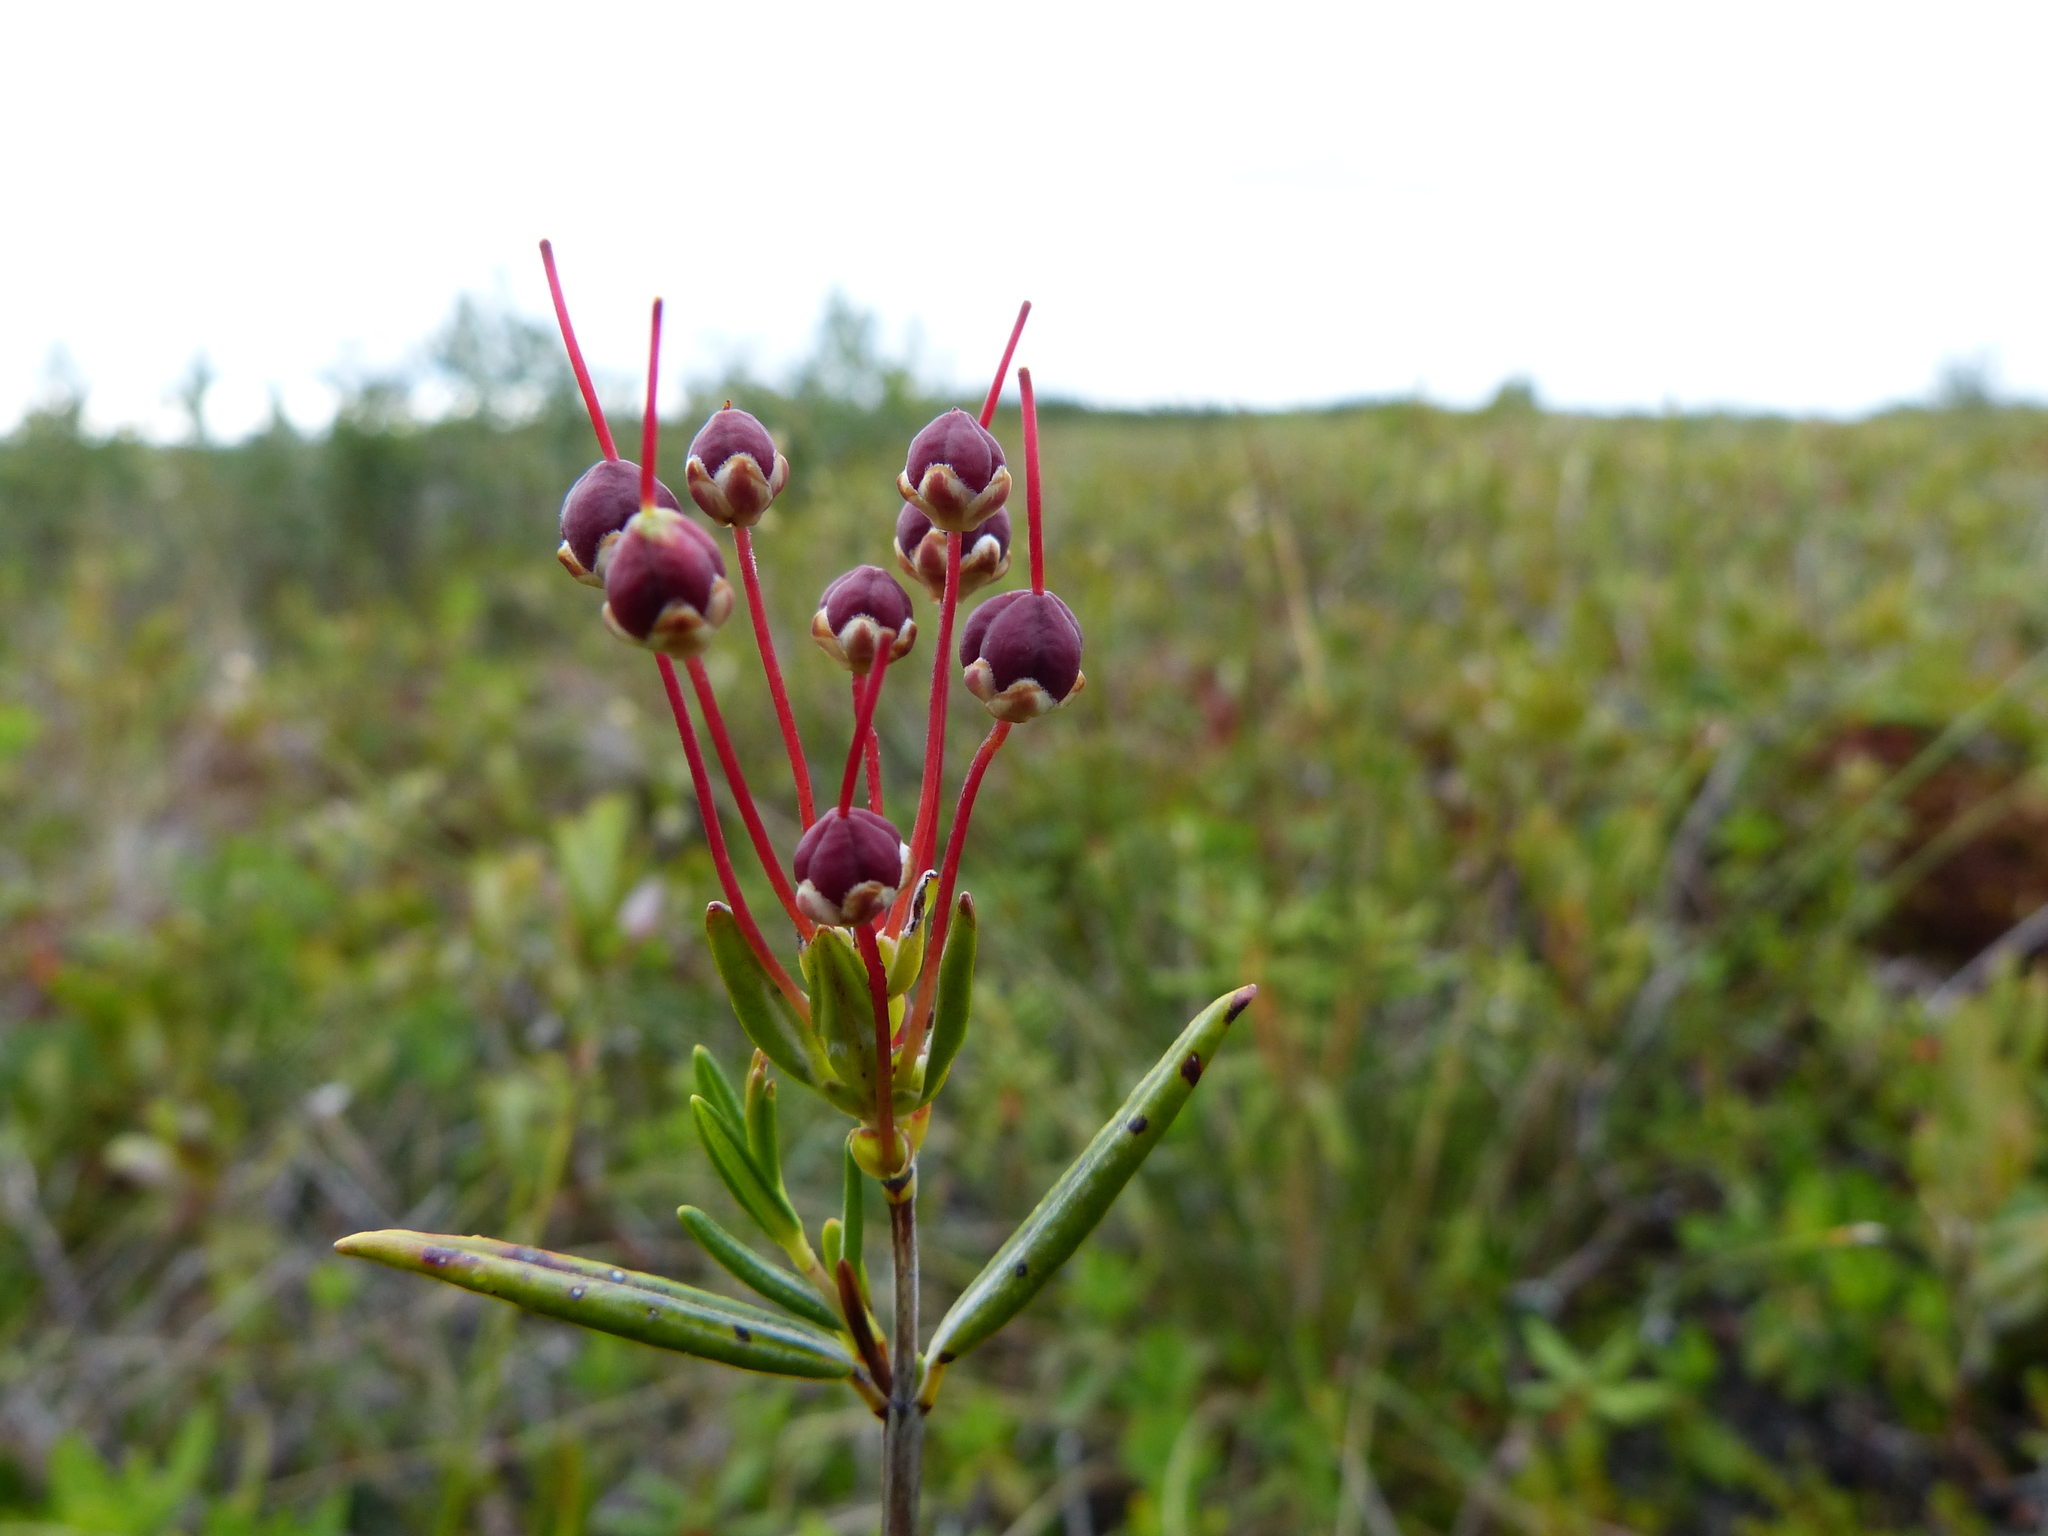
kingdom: Plantae
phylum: Tracheophyta
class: Magnoliopsida
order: Ericales
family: Ericaceae
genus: Kalmia
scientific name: Kalmia polifolia
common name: Bog-laurel
